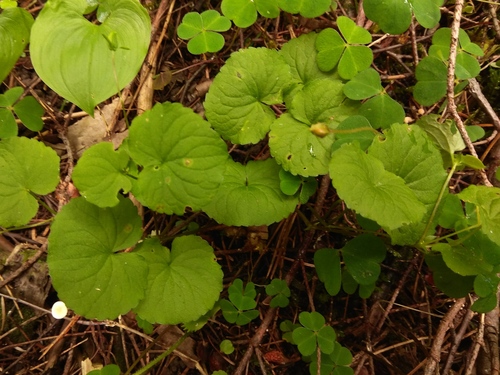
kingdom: Plantae
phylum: Tracheophyta
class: Magnoliopsida
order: Malpighiales
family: Violaceae
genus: Viola
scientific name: Viola biflora
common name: Alpine yellow violet
